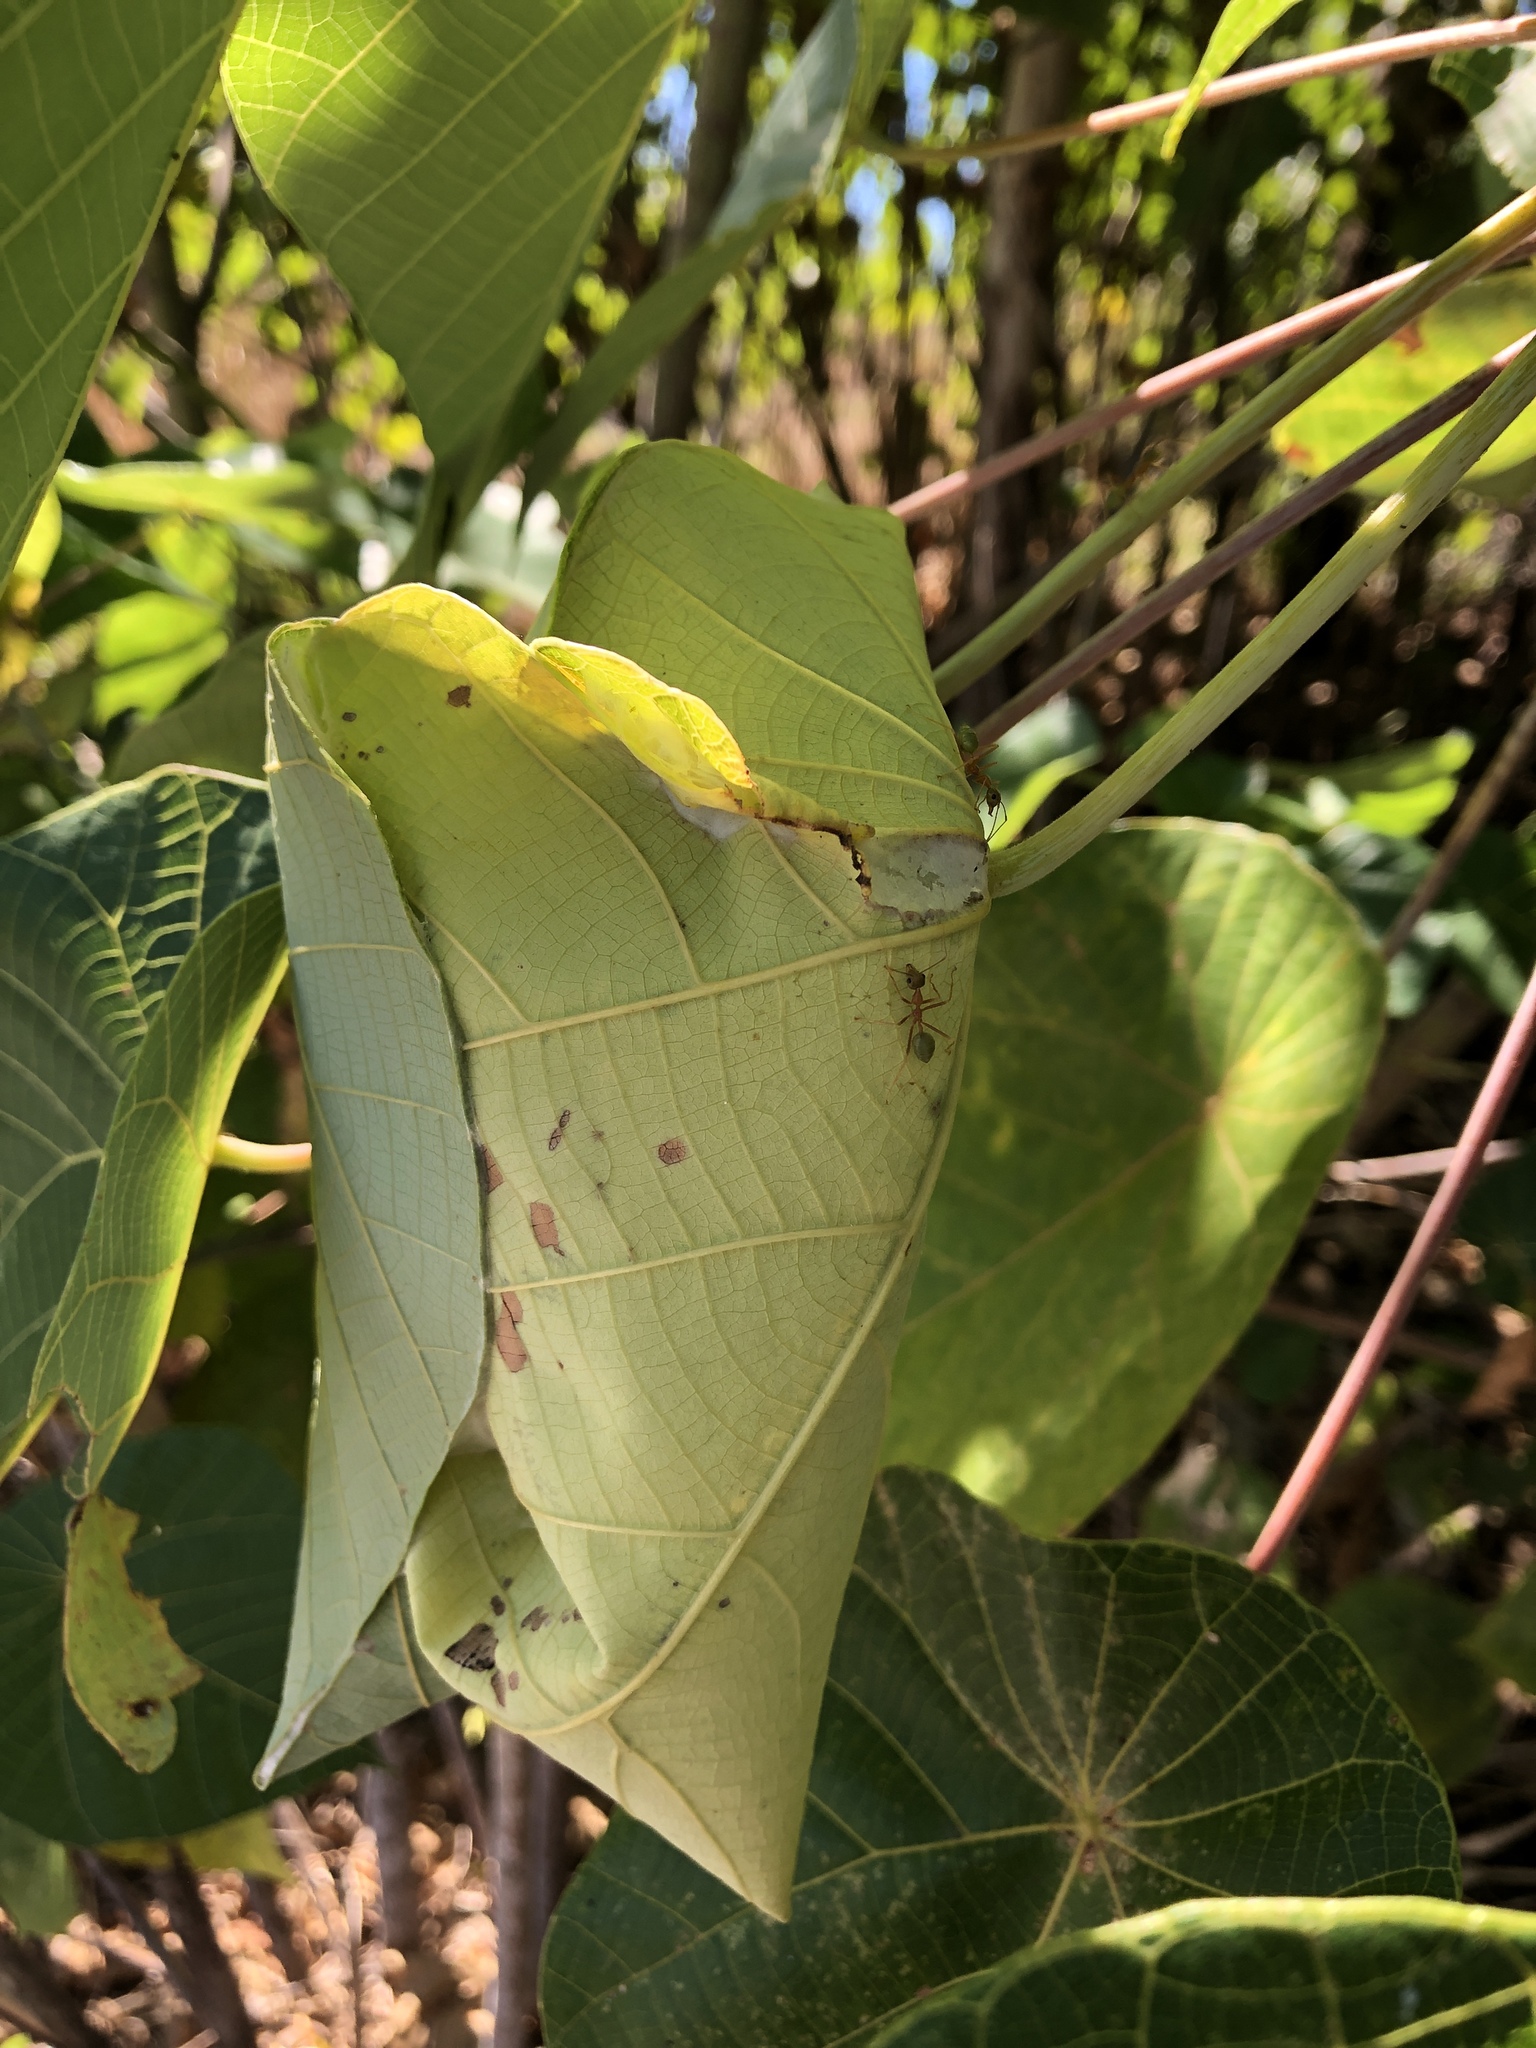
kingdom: Animalia
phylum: Arthropoda
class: Insecta
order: Hymenoptera
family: Formicidae
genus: Oecophylla
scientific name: Oecophylla smaragdina
